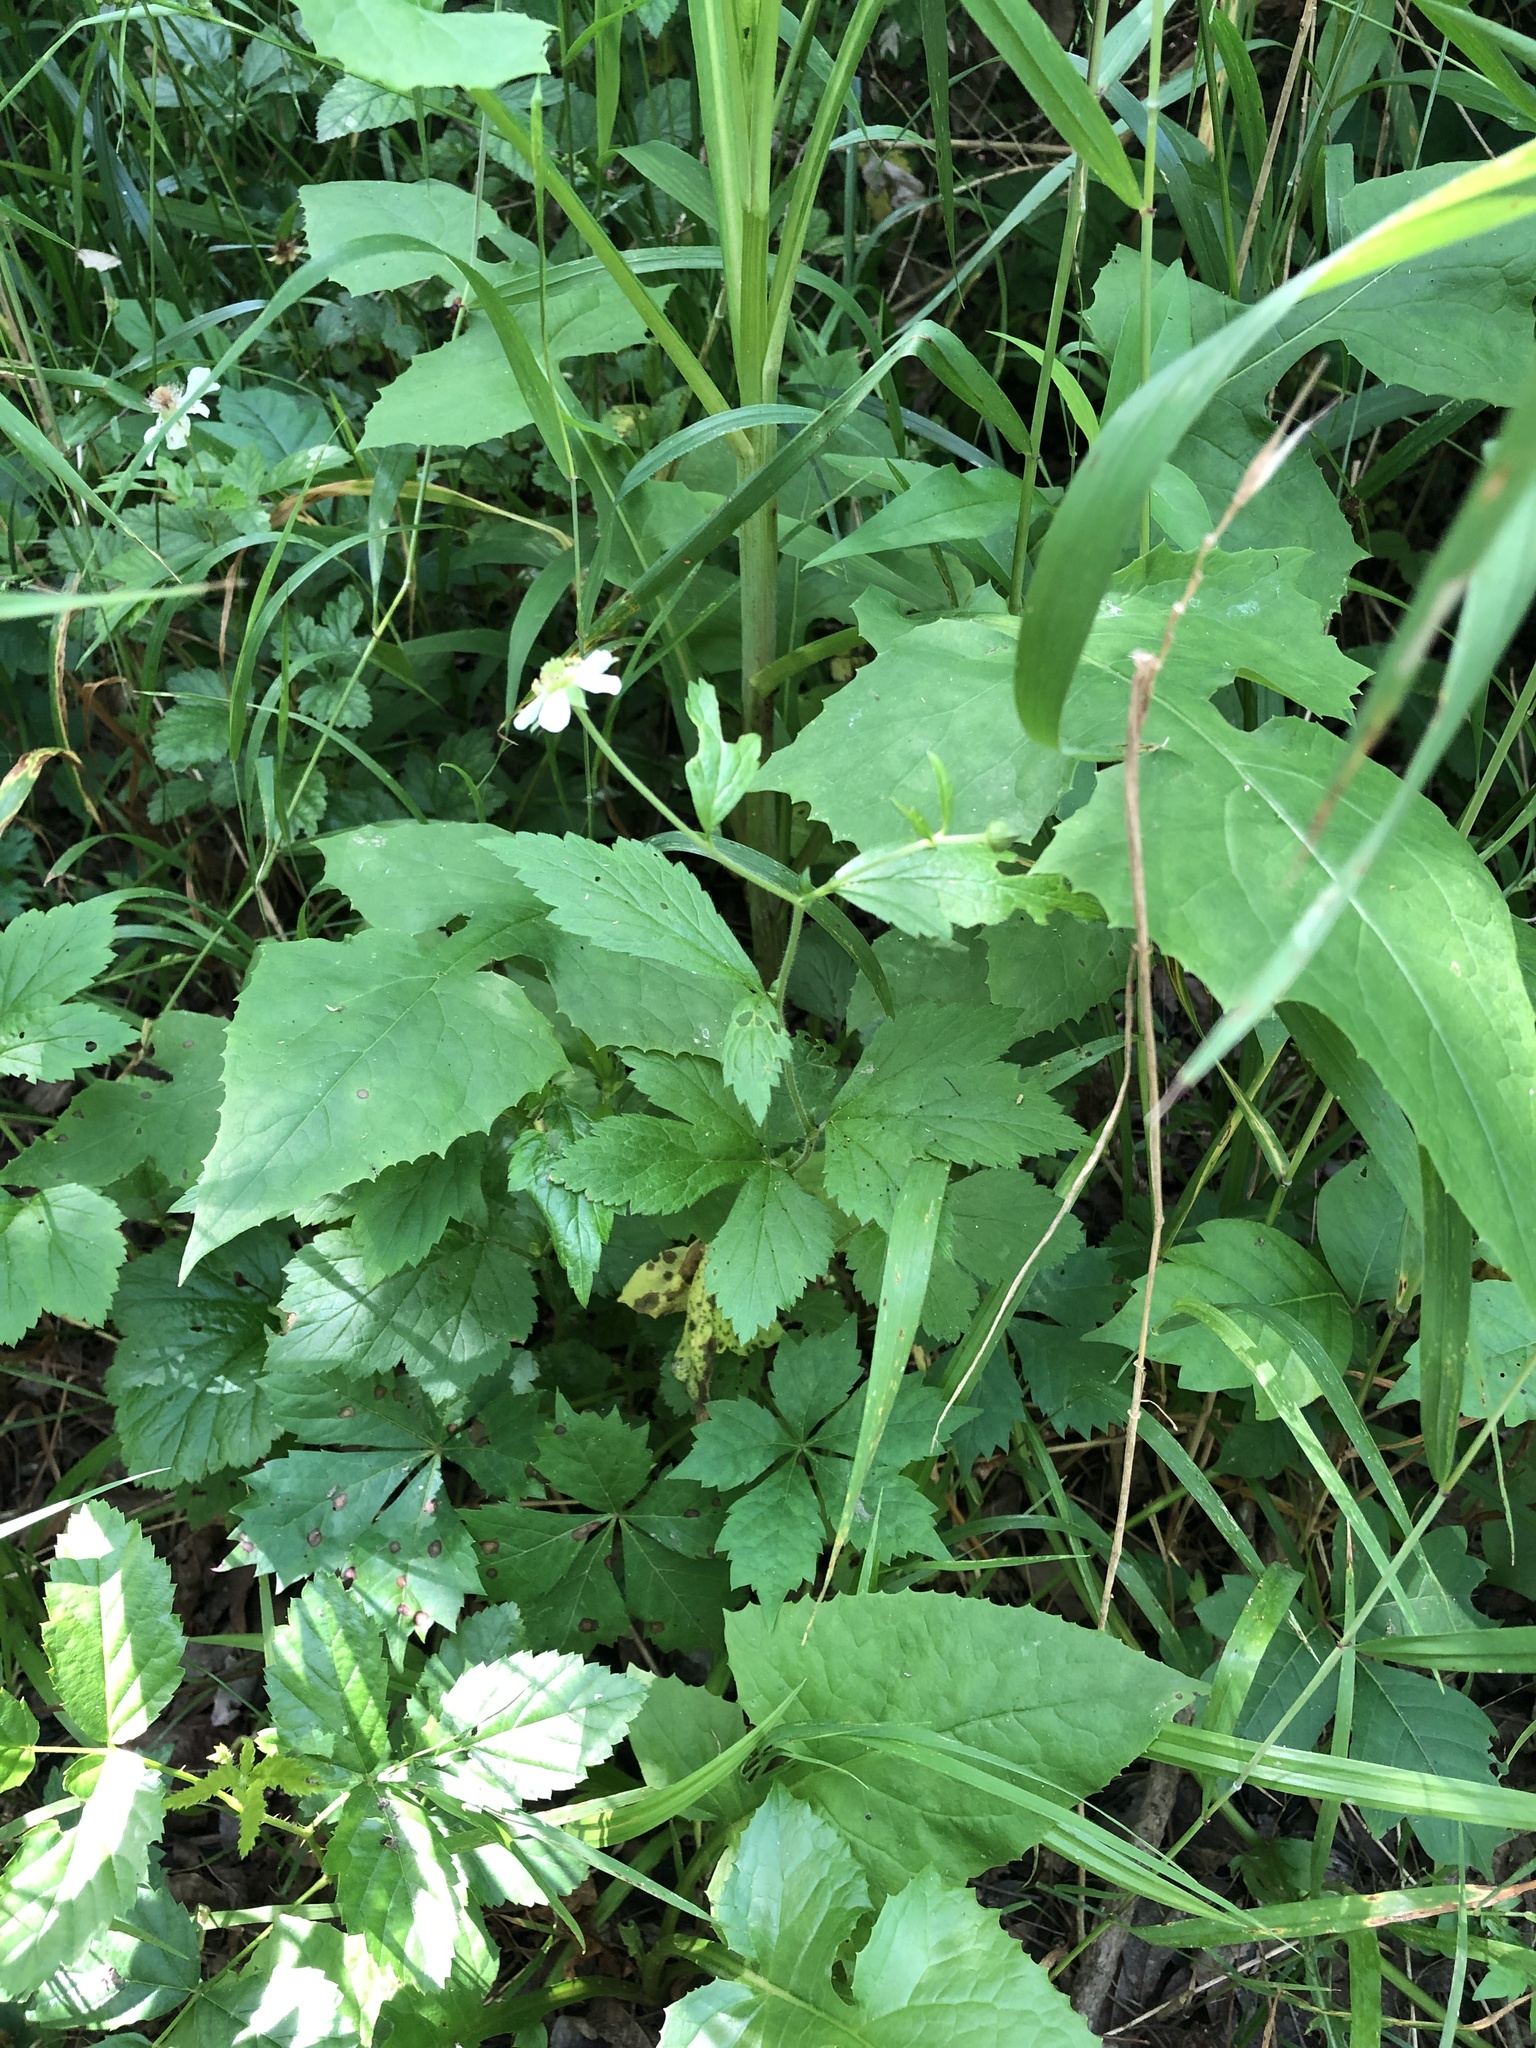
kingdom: Plantae
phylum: Tracheophyta
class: Magnoliopsida
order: Rosales
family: Rosaceae
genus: Geum
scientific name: Geum canadense
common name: White avens
